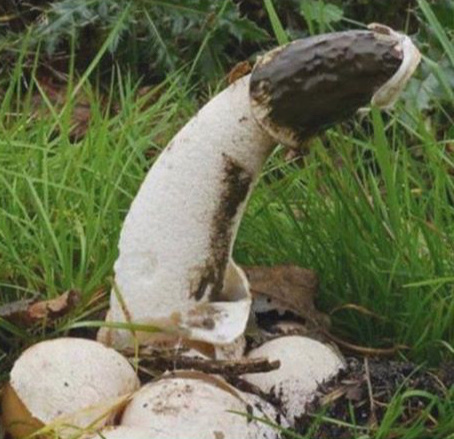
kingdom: Fungi
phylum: Basidiomycota
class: Agaricomycetes
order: Phallales
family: Phallaceae
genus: Phallus
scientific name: Phallus impudicus
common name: Common stinkhorn
